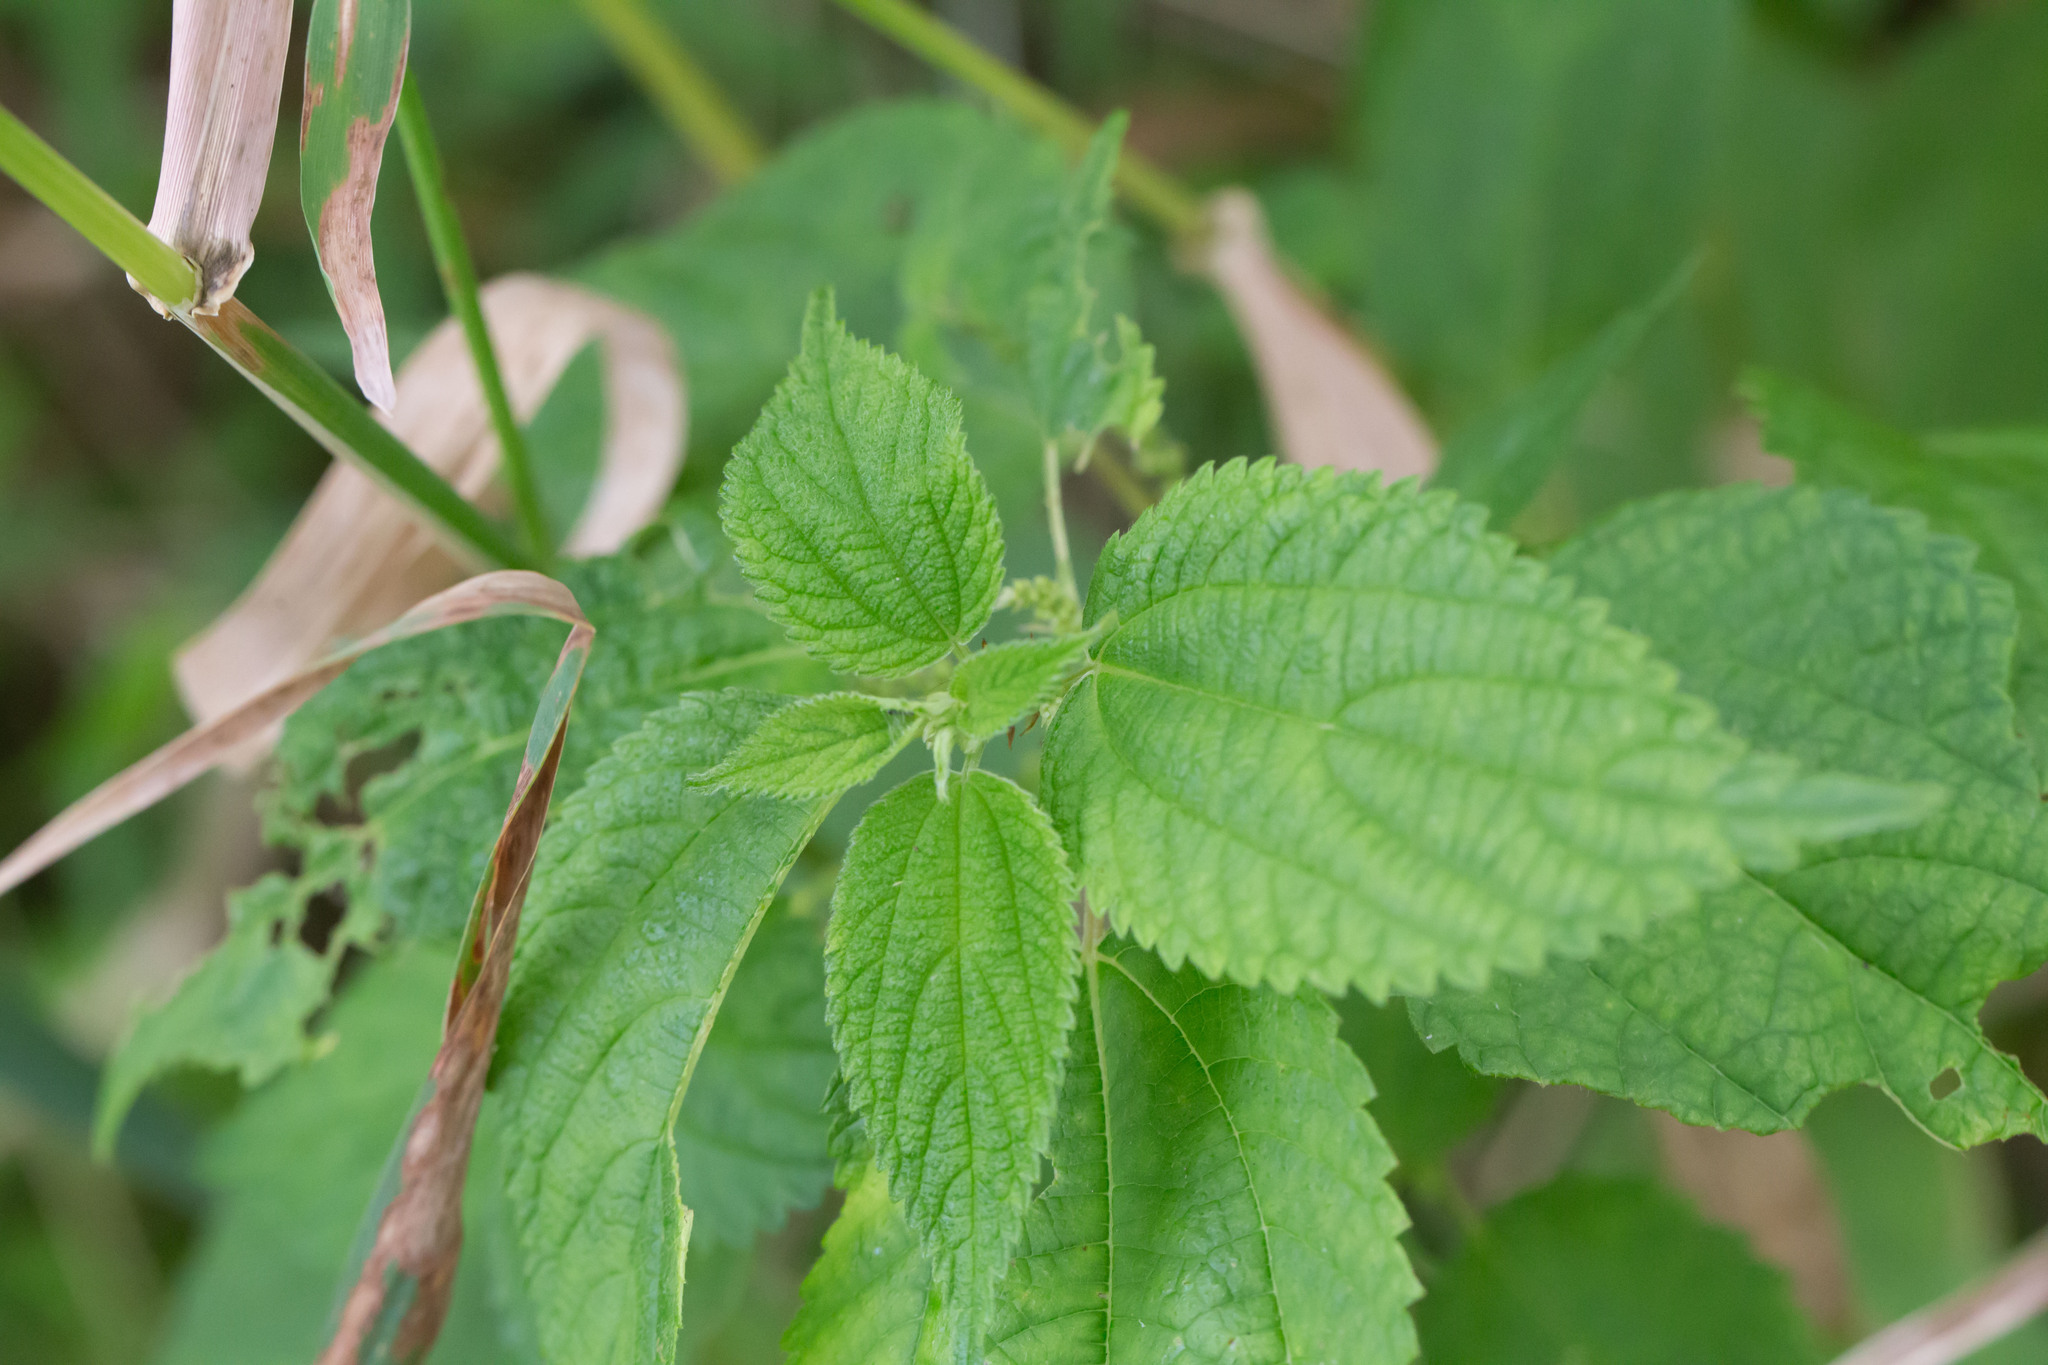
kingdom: Plantae
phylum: Tracheophyta
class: Magnoliopsida
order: Rosales
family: Urticaceae
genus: Boehmeria
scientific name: Boehmeria cylindrica
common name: Bog-hemp
